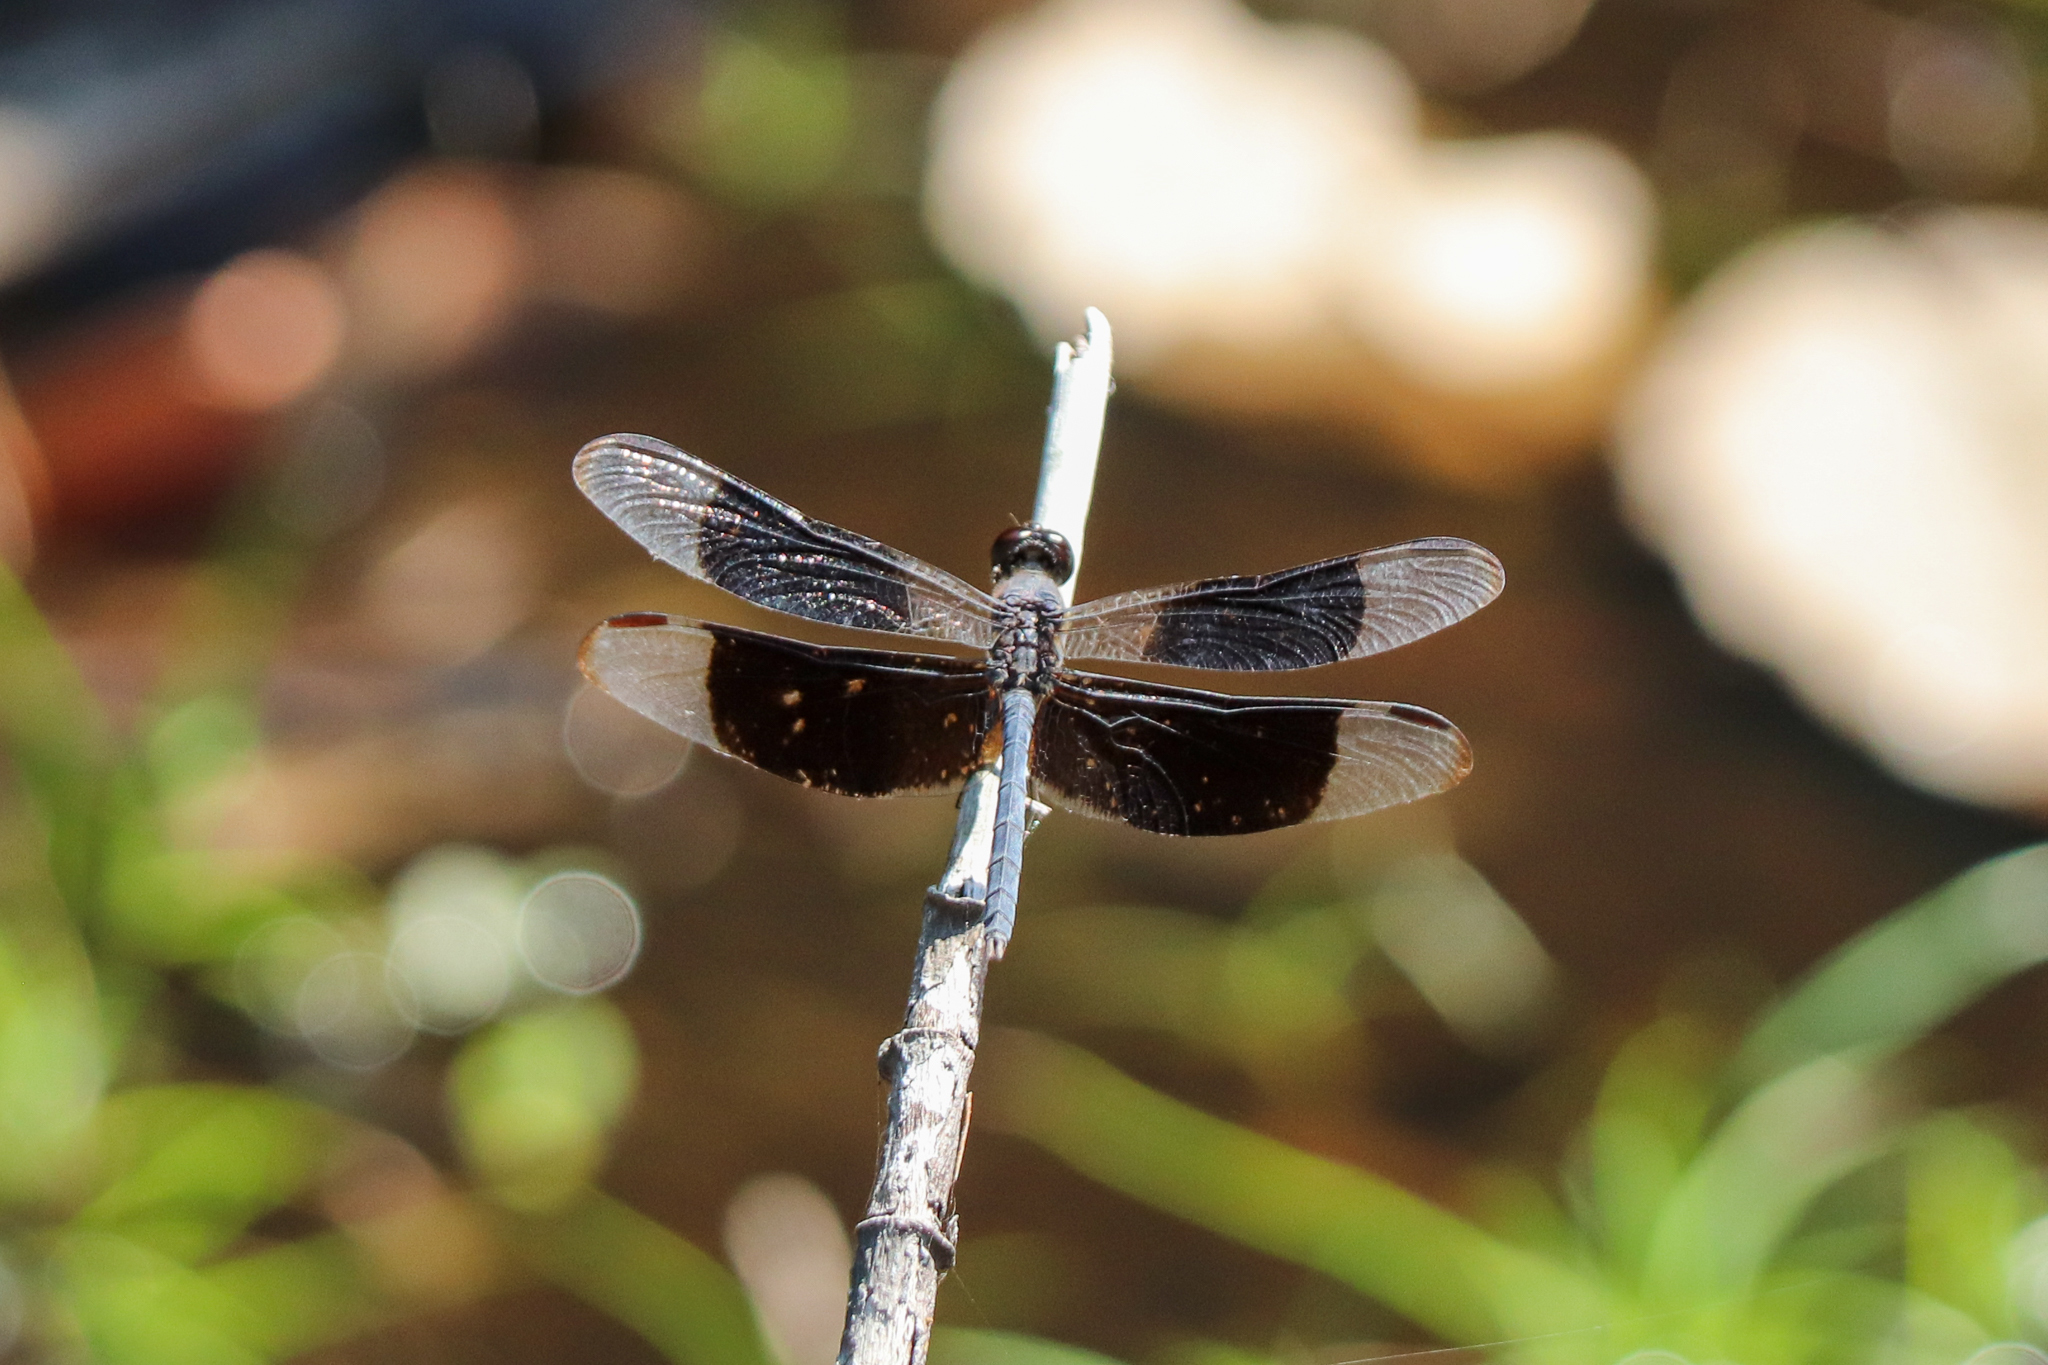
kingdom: Animalia
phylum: Arthropoda
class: Insecta
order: Odonata
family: Libellulidae
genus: Erythrodiplax
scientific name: Erythrodiplax funerea
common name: Black-winged dragonlet
